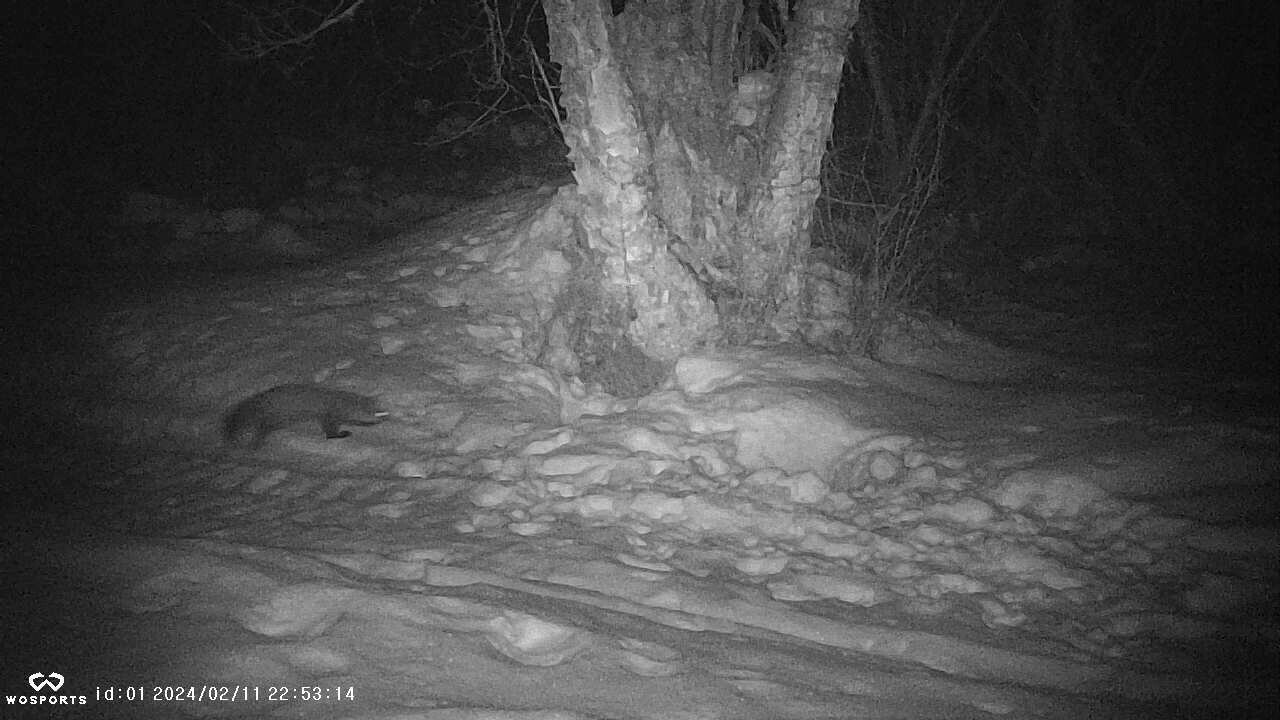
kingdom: Animalia
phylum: Chordata
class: Mammalia
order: Carnivora
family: Mustelidae
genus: Martes
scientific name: Martes americana
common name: American marten
